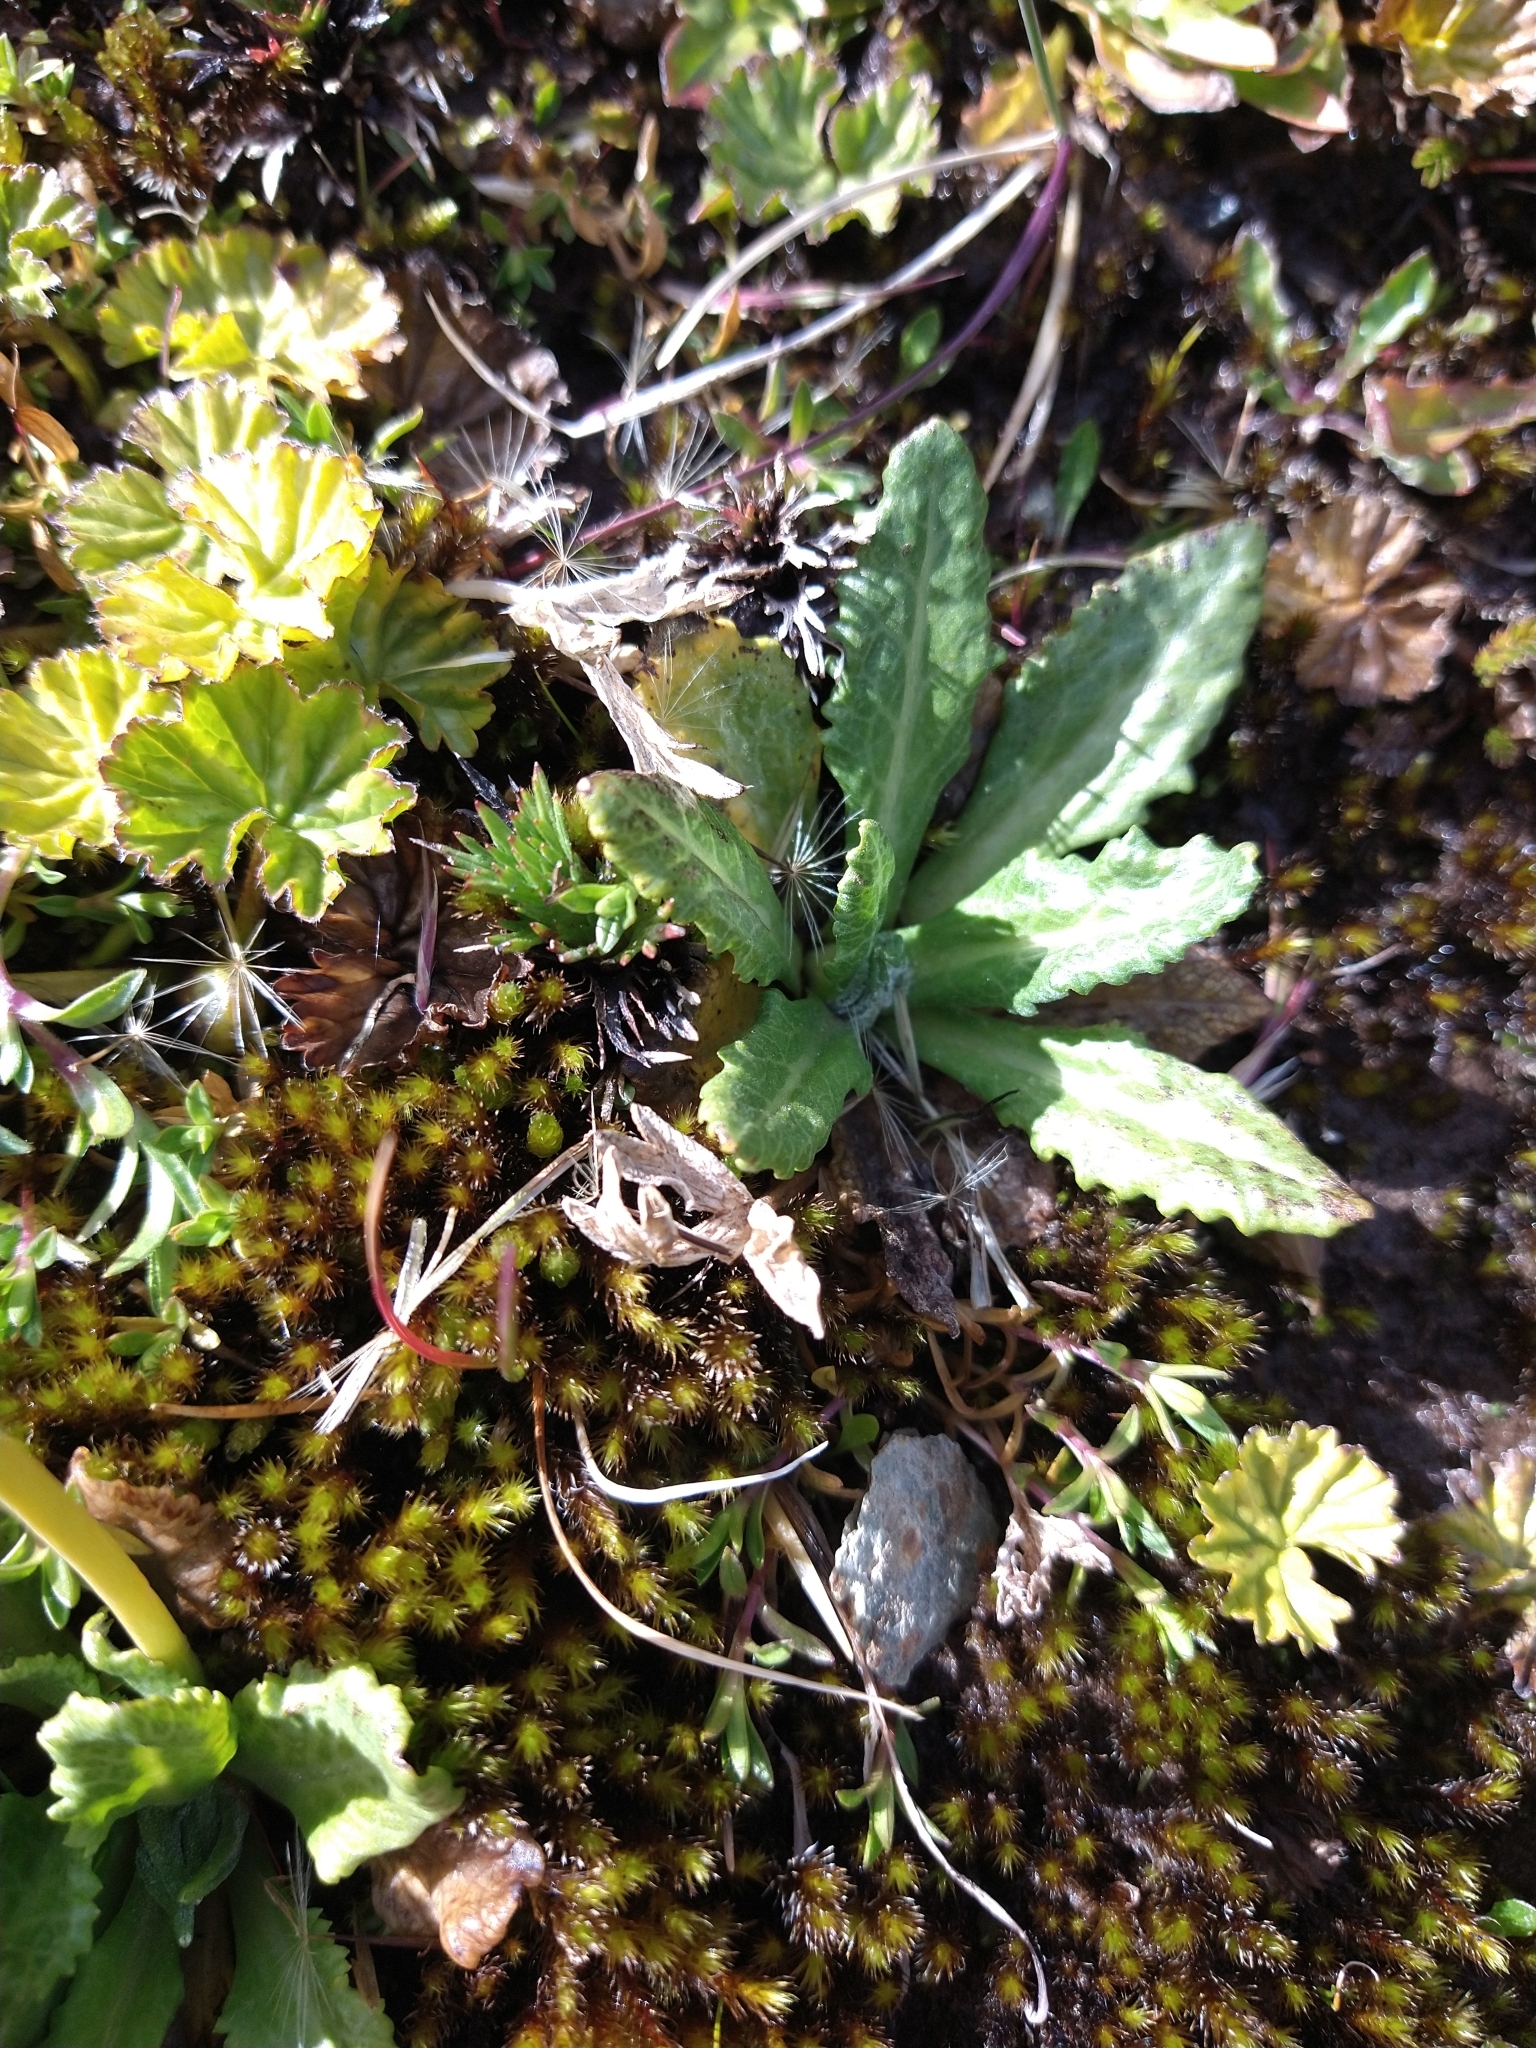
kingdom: Plantae
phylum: Tracheophyta
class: Magnoliopsida
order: Ericales
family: Primulaceae
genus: Primula
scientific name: Primula magellanica
